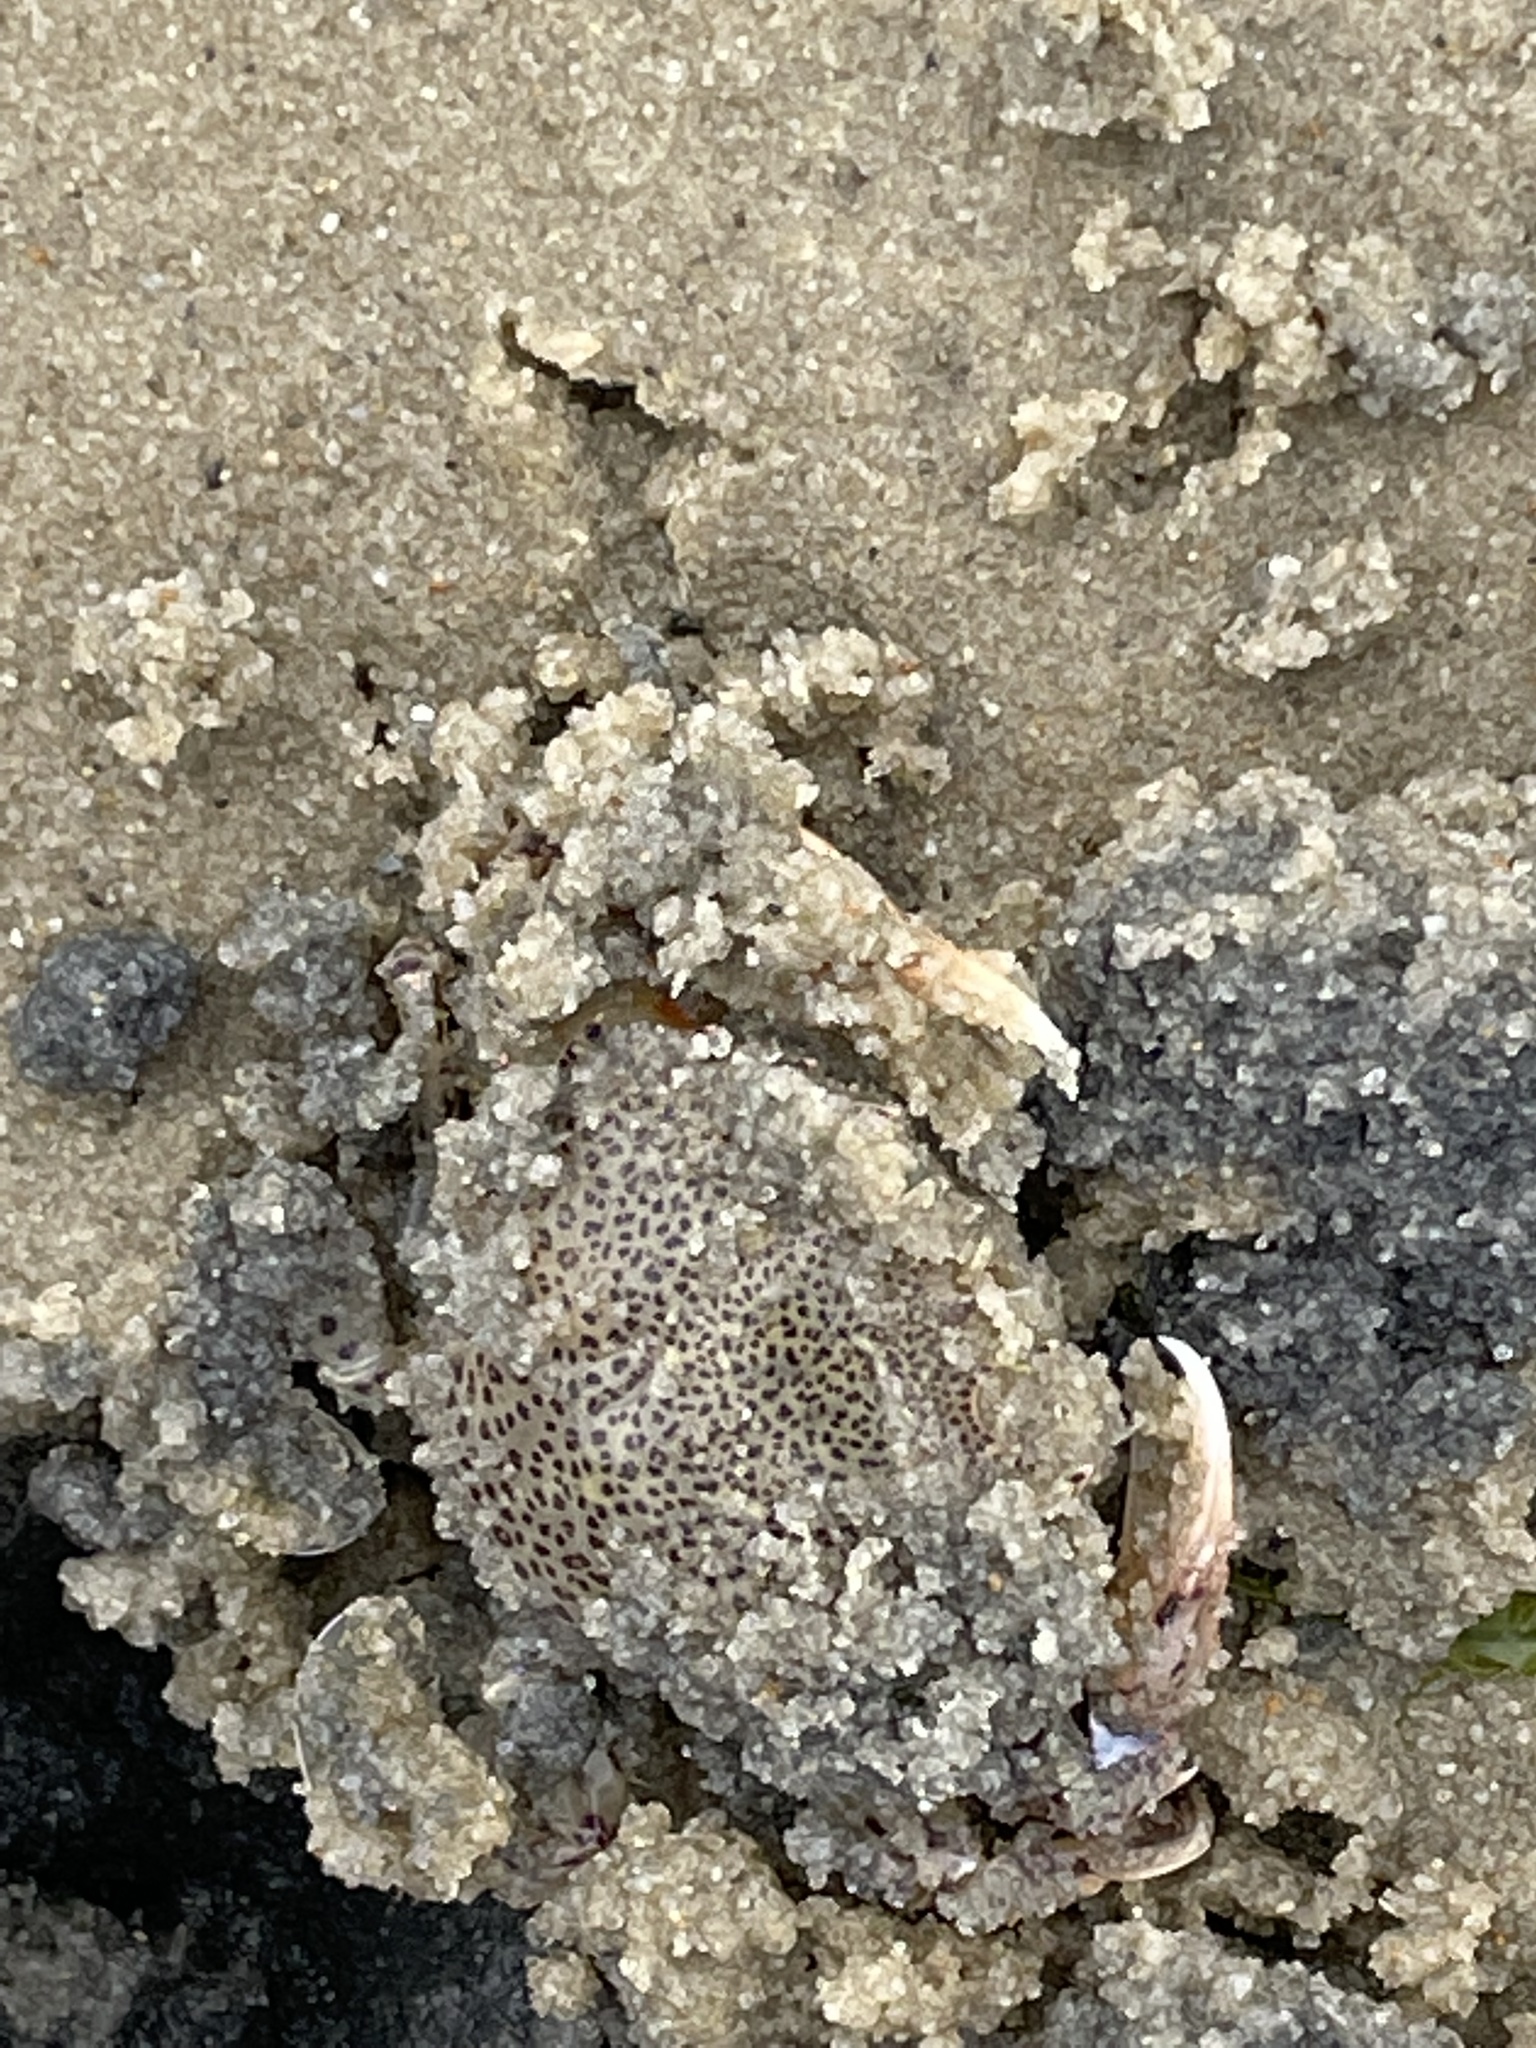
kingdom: Animalia
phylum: Arthropoda
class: Malacostraca
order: Decapoda
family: Ovalipidae
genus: Ovalipes
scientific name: Ovalipes ocellatus
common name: Lady crab
